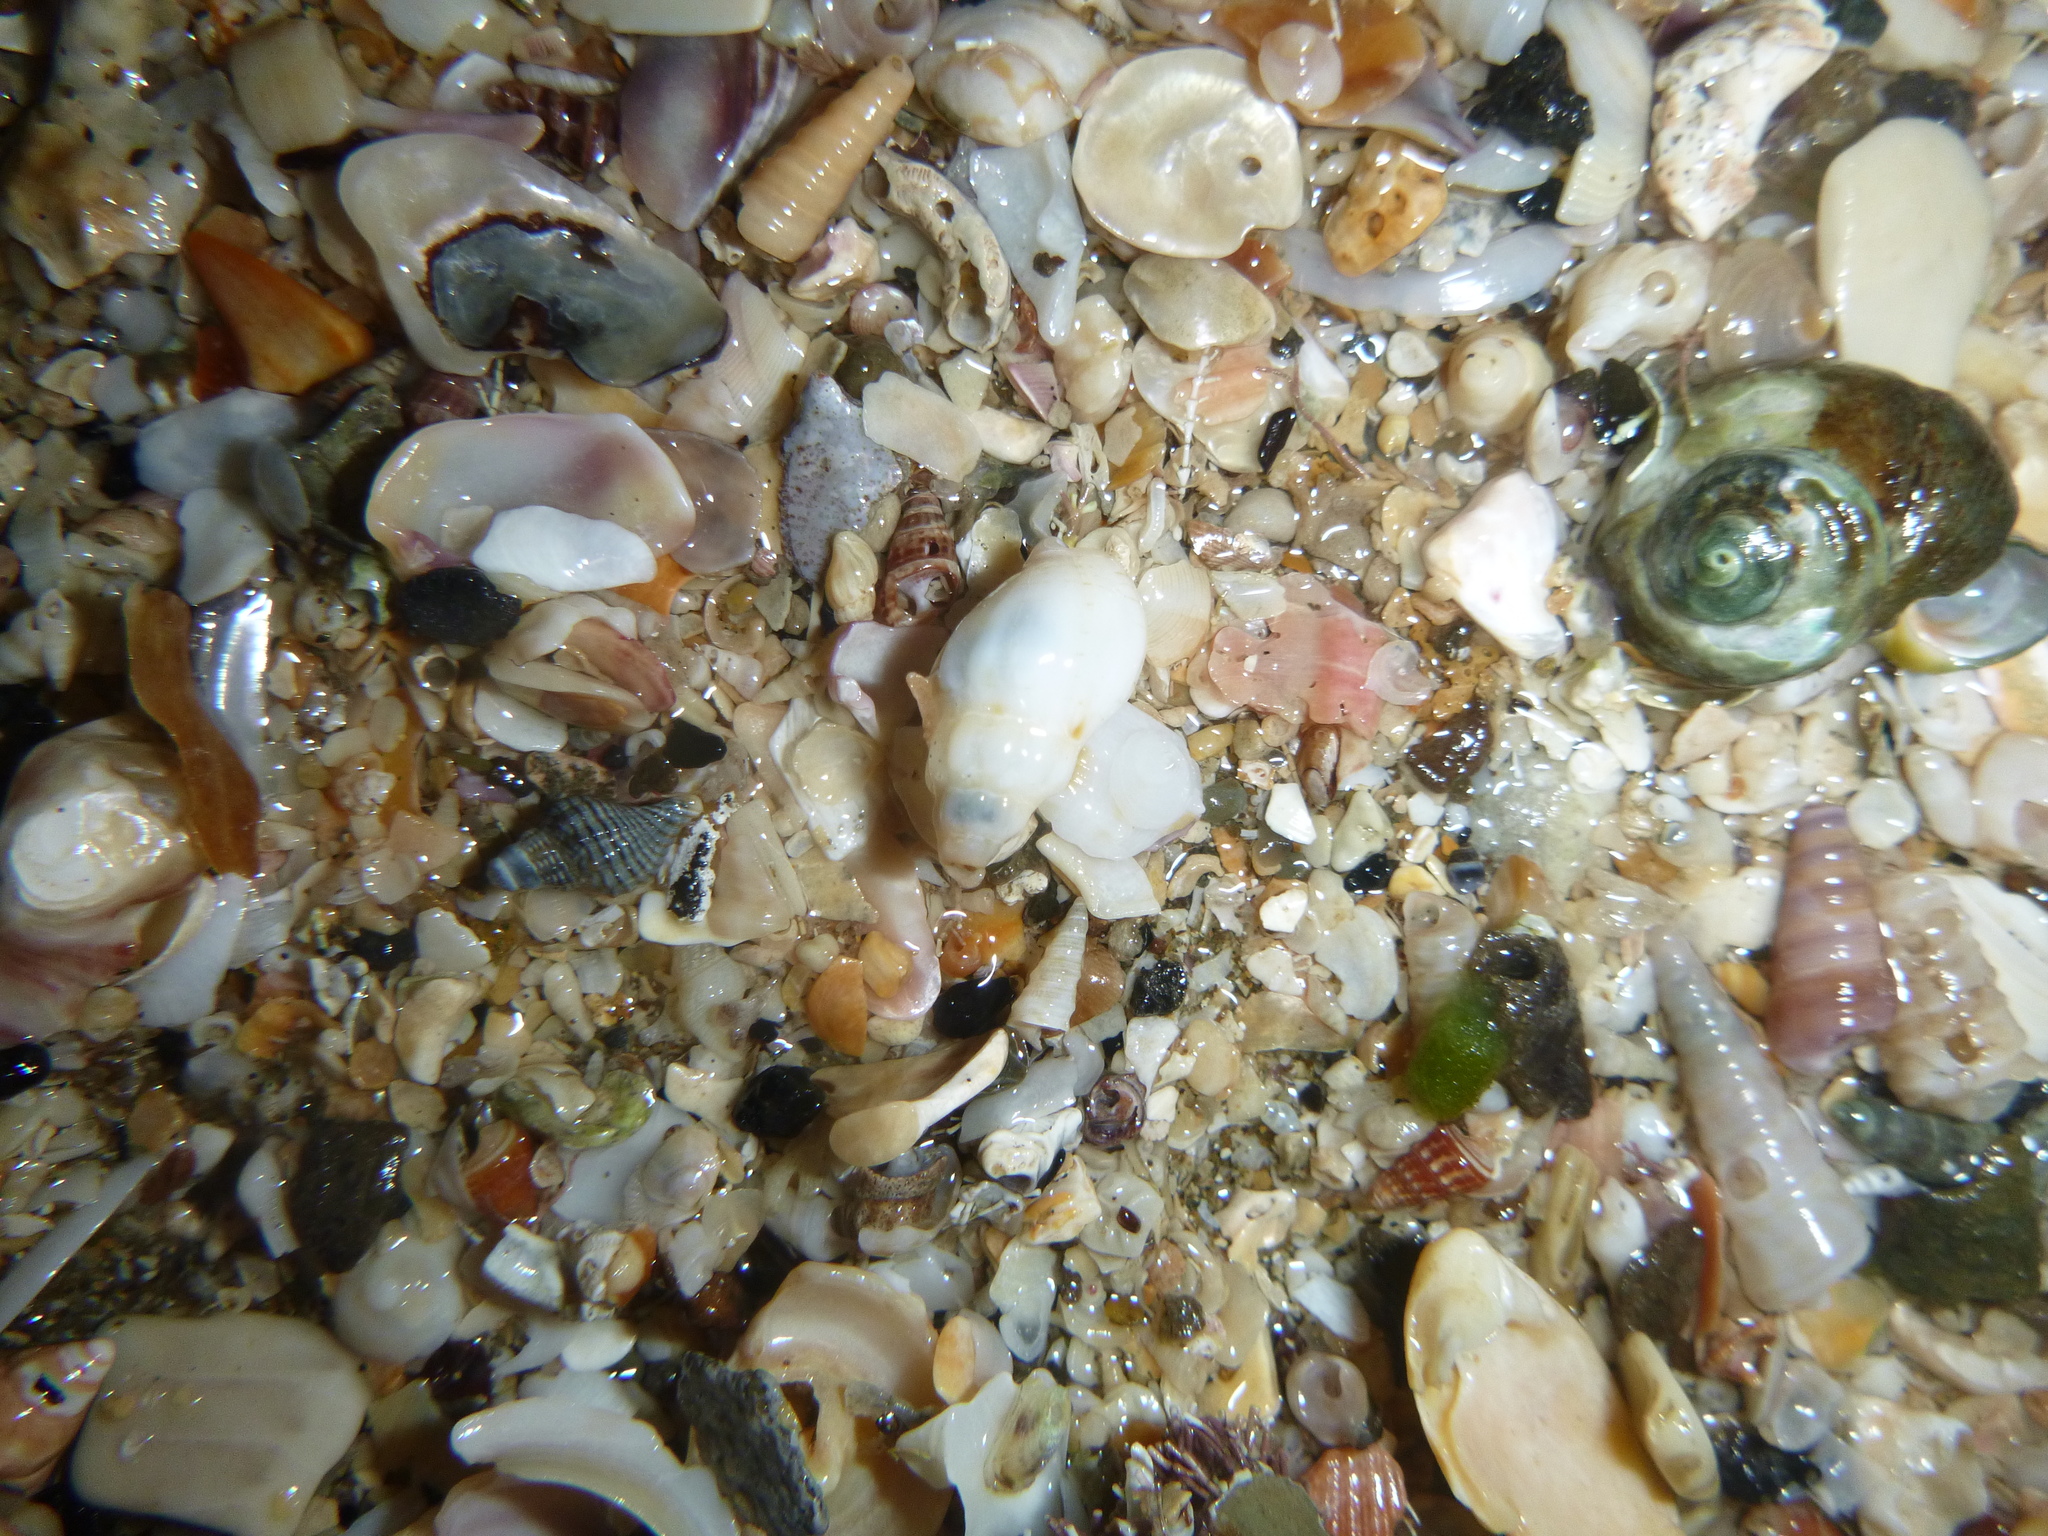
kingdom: Animalia
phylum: Mollusca
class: Gastropoda
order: Neogastropoda
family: Austrosiphonidae
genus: Penion
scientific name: Penion sulcatus
